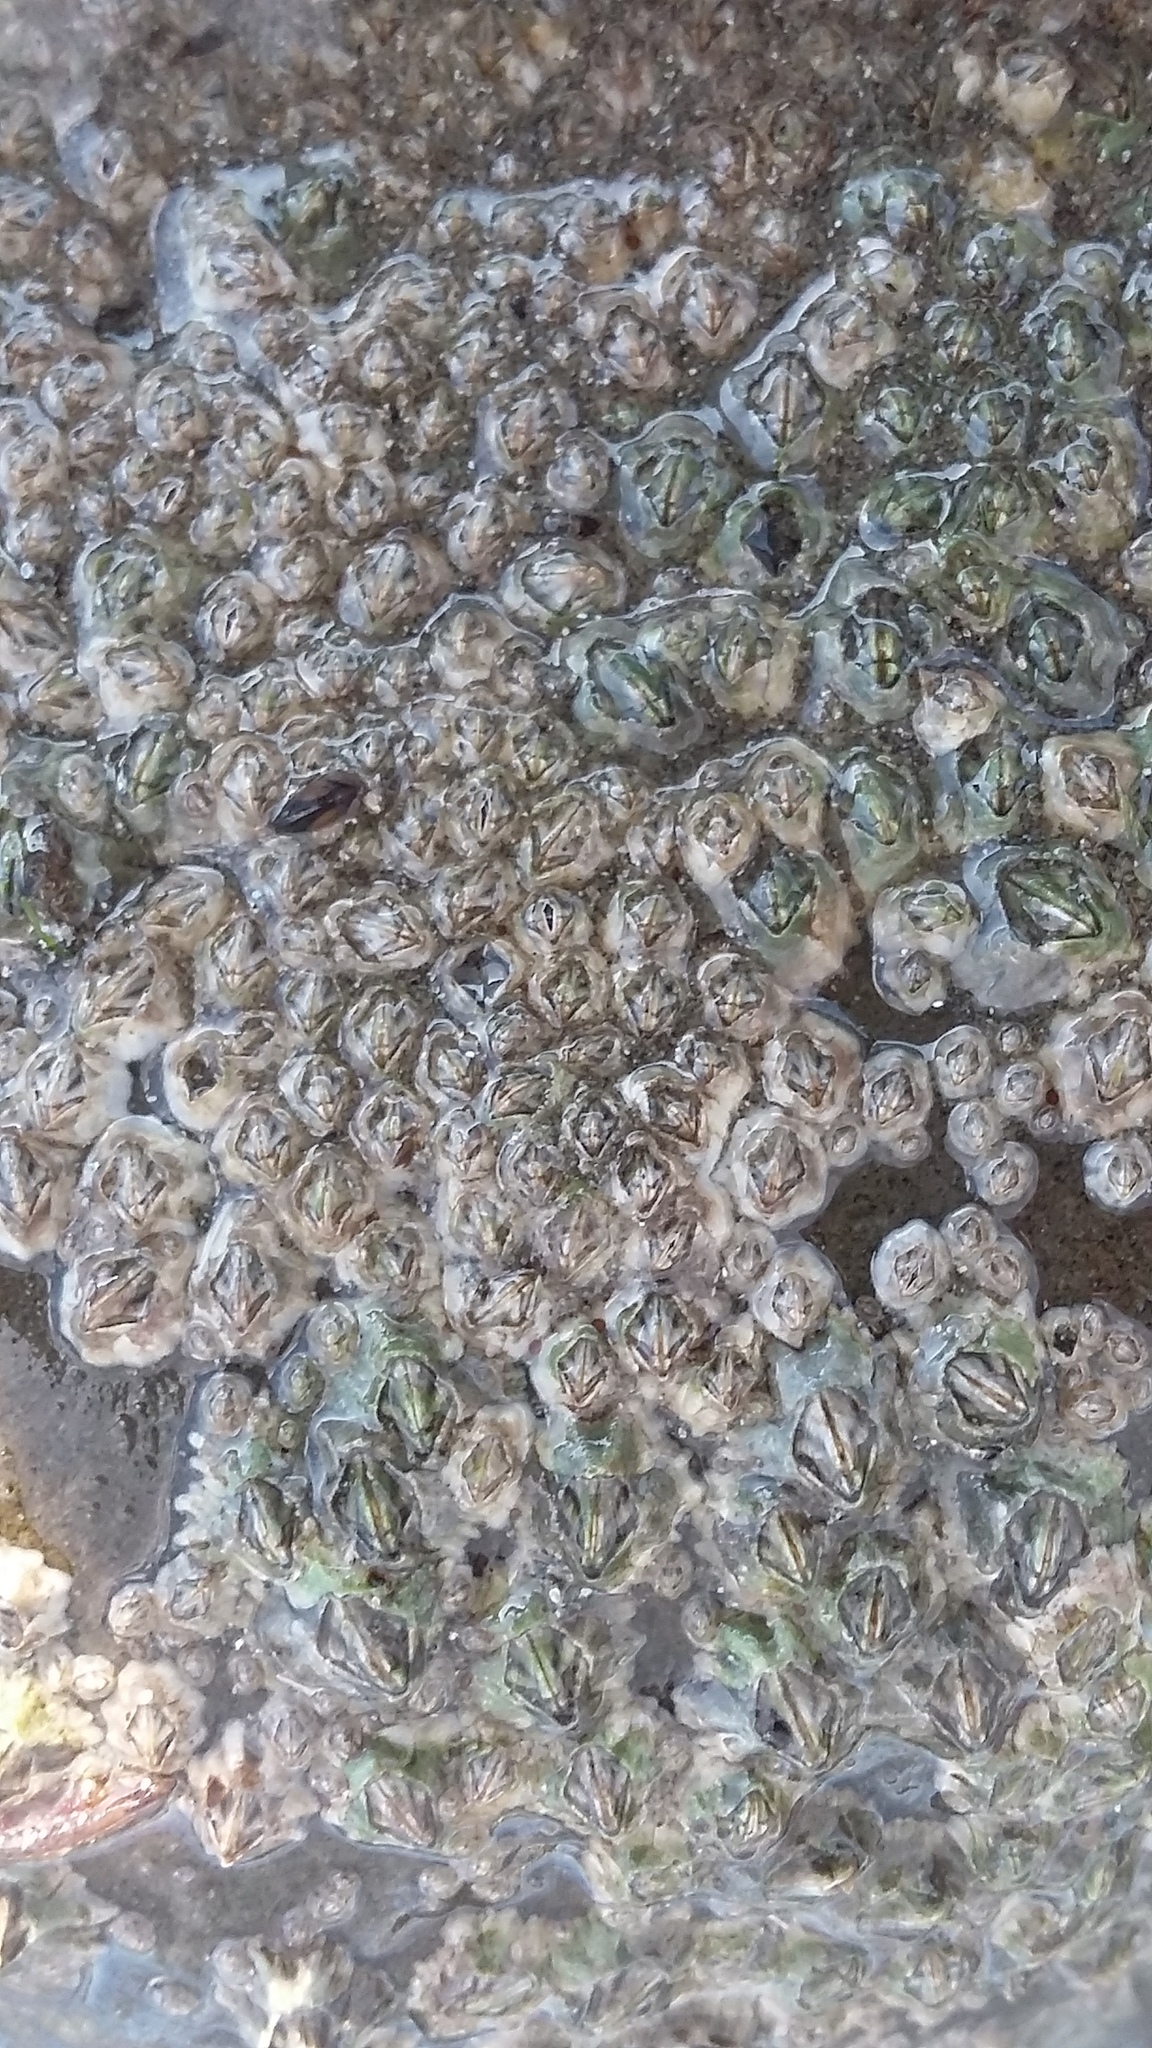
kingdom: Animalia
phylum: Arthropoda
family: Elminiidae
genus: Austrominius
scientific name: Austrominius modestus
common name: Australasian barnacle
